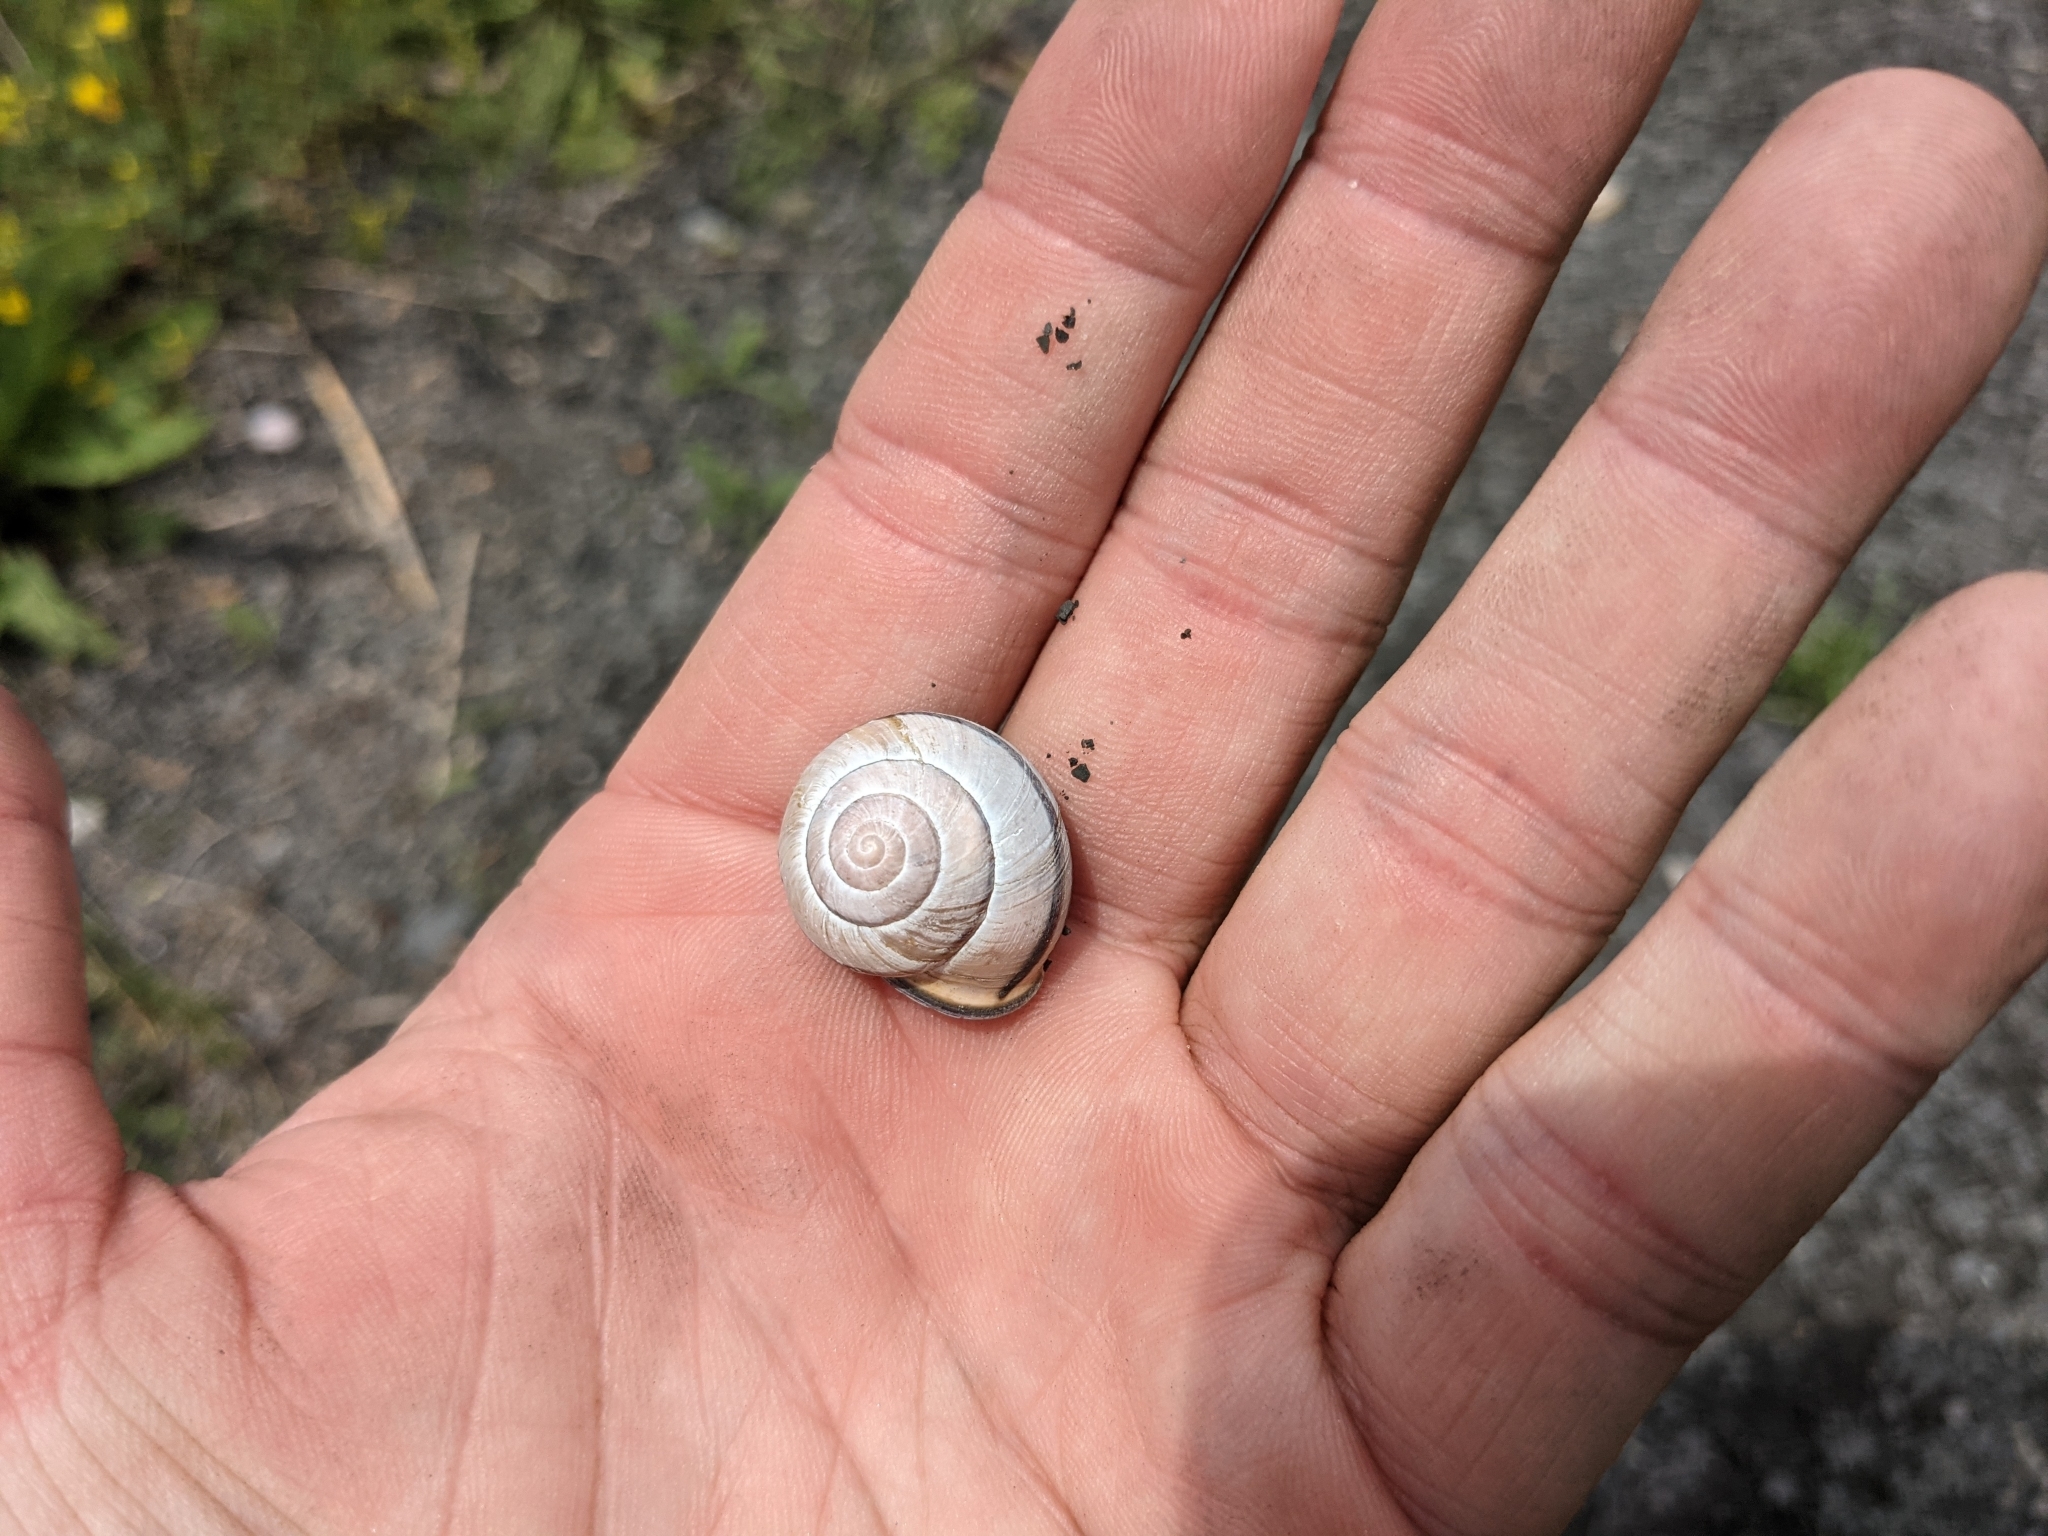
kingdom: Animalia
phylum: Mollusca
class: Gastropoda
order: Stylommatophora
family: Helicidae
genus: Cepaea
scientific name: Cepaea nemoralis
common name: Grovesnail
